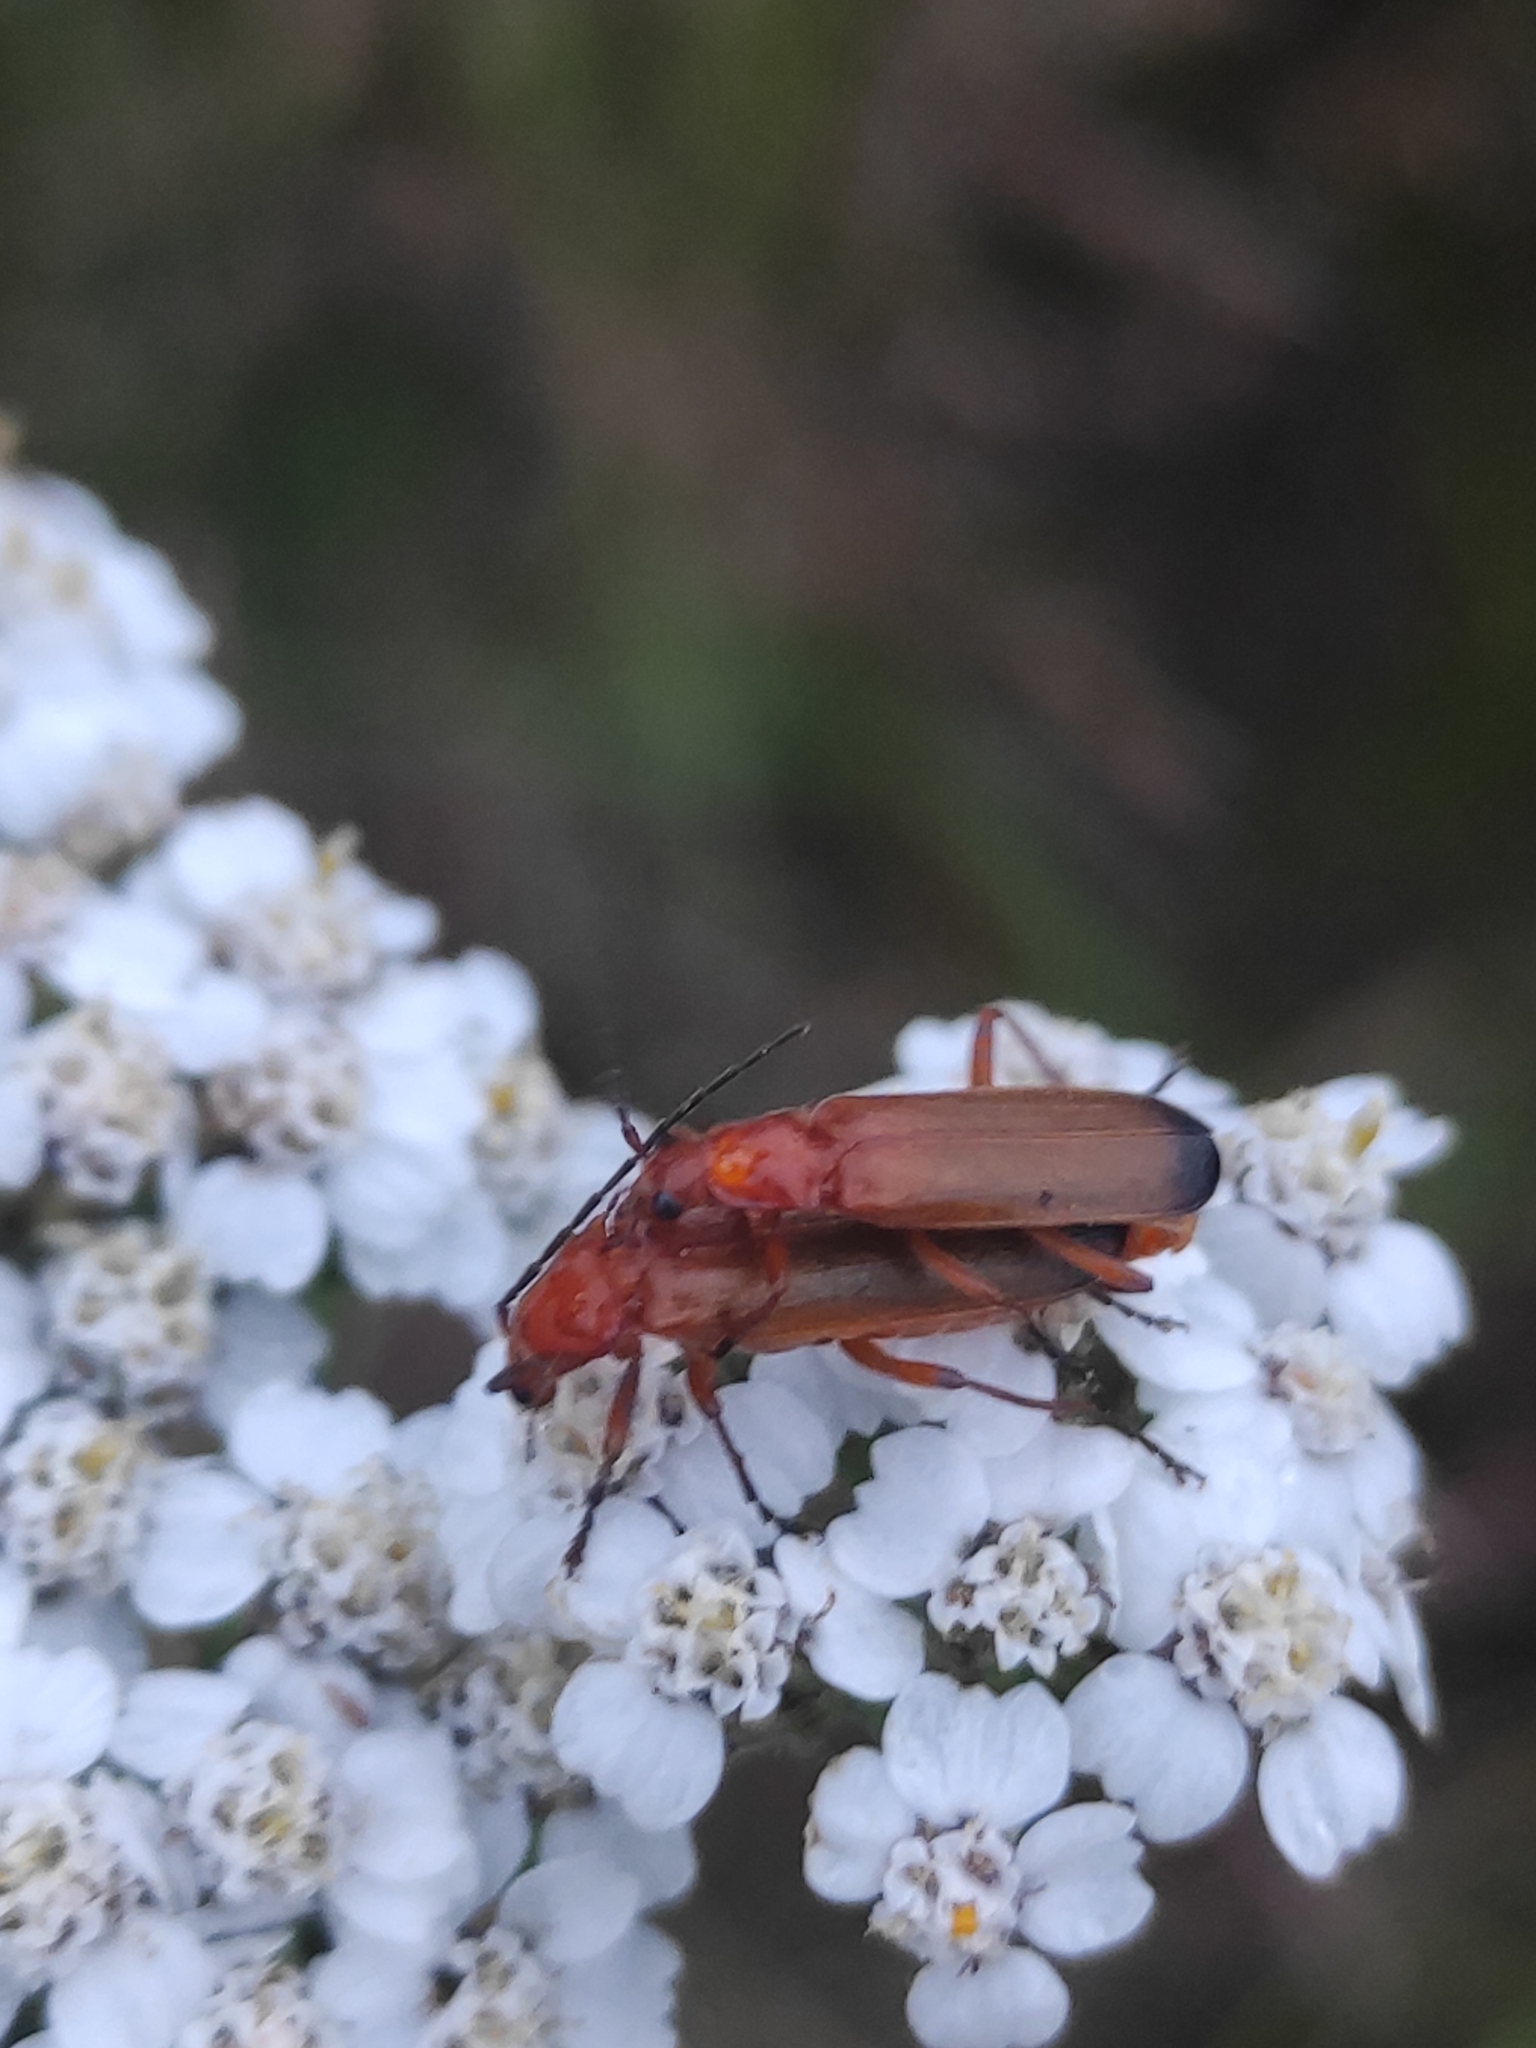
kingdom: Animalia
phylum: Arthropoda
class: Insecta
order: Coleoptera
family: Cantharidae
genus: Rhagonycha
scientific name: Rhagonycha fulva
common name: Common red soldier beetle
